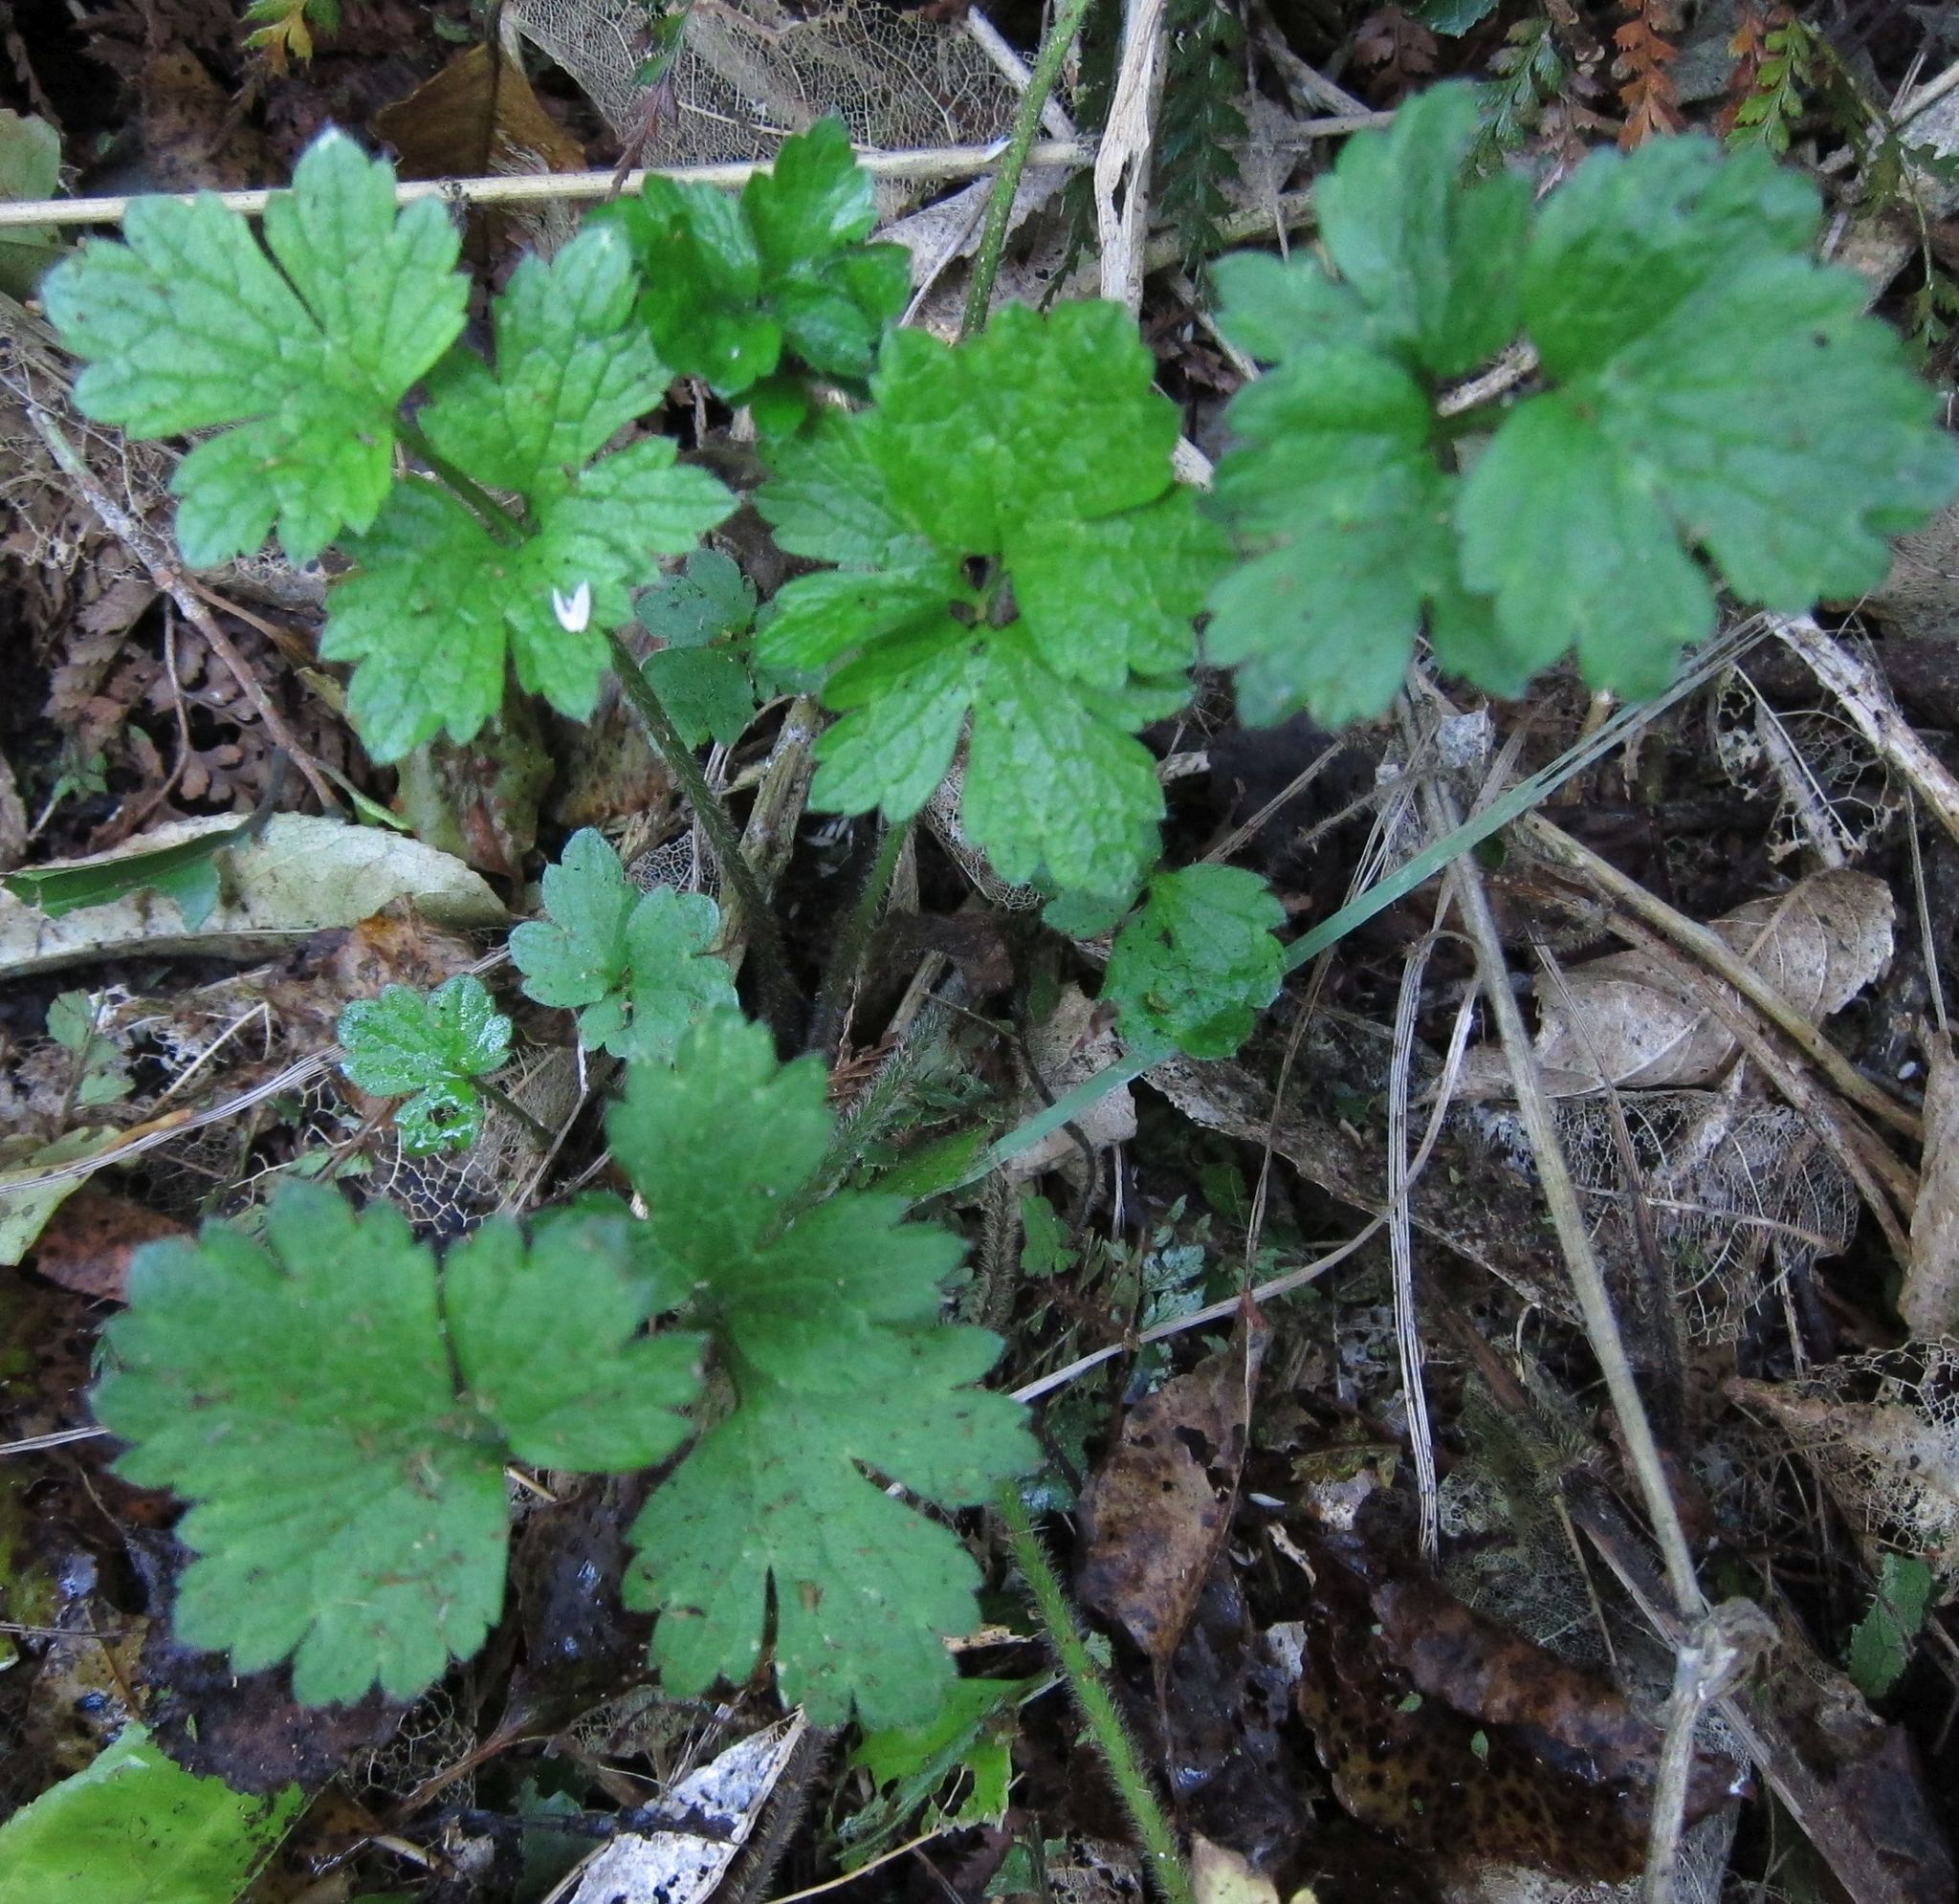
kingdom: Plantae
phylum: Tracheophyta
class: Magnoliopsida
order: Ranunculales
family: Ranunculaceae
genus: Ranunculus
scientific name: Ranunculus repens
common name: Creeping buttercup
